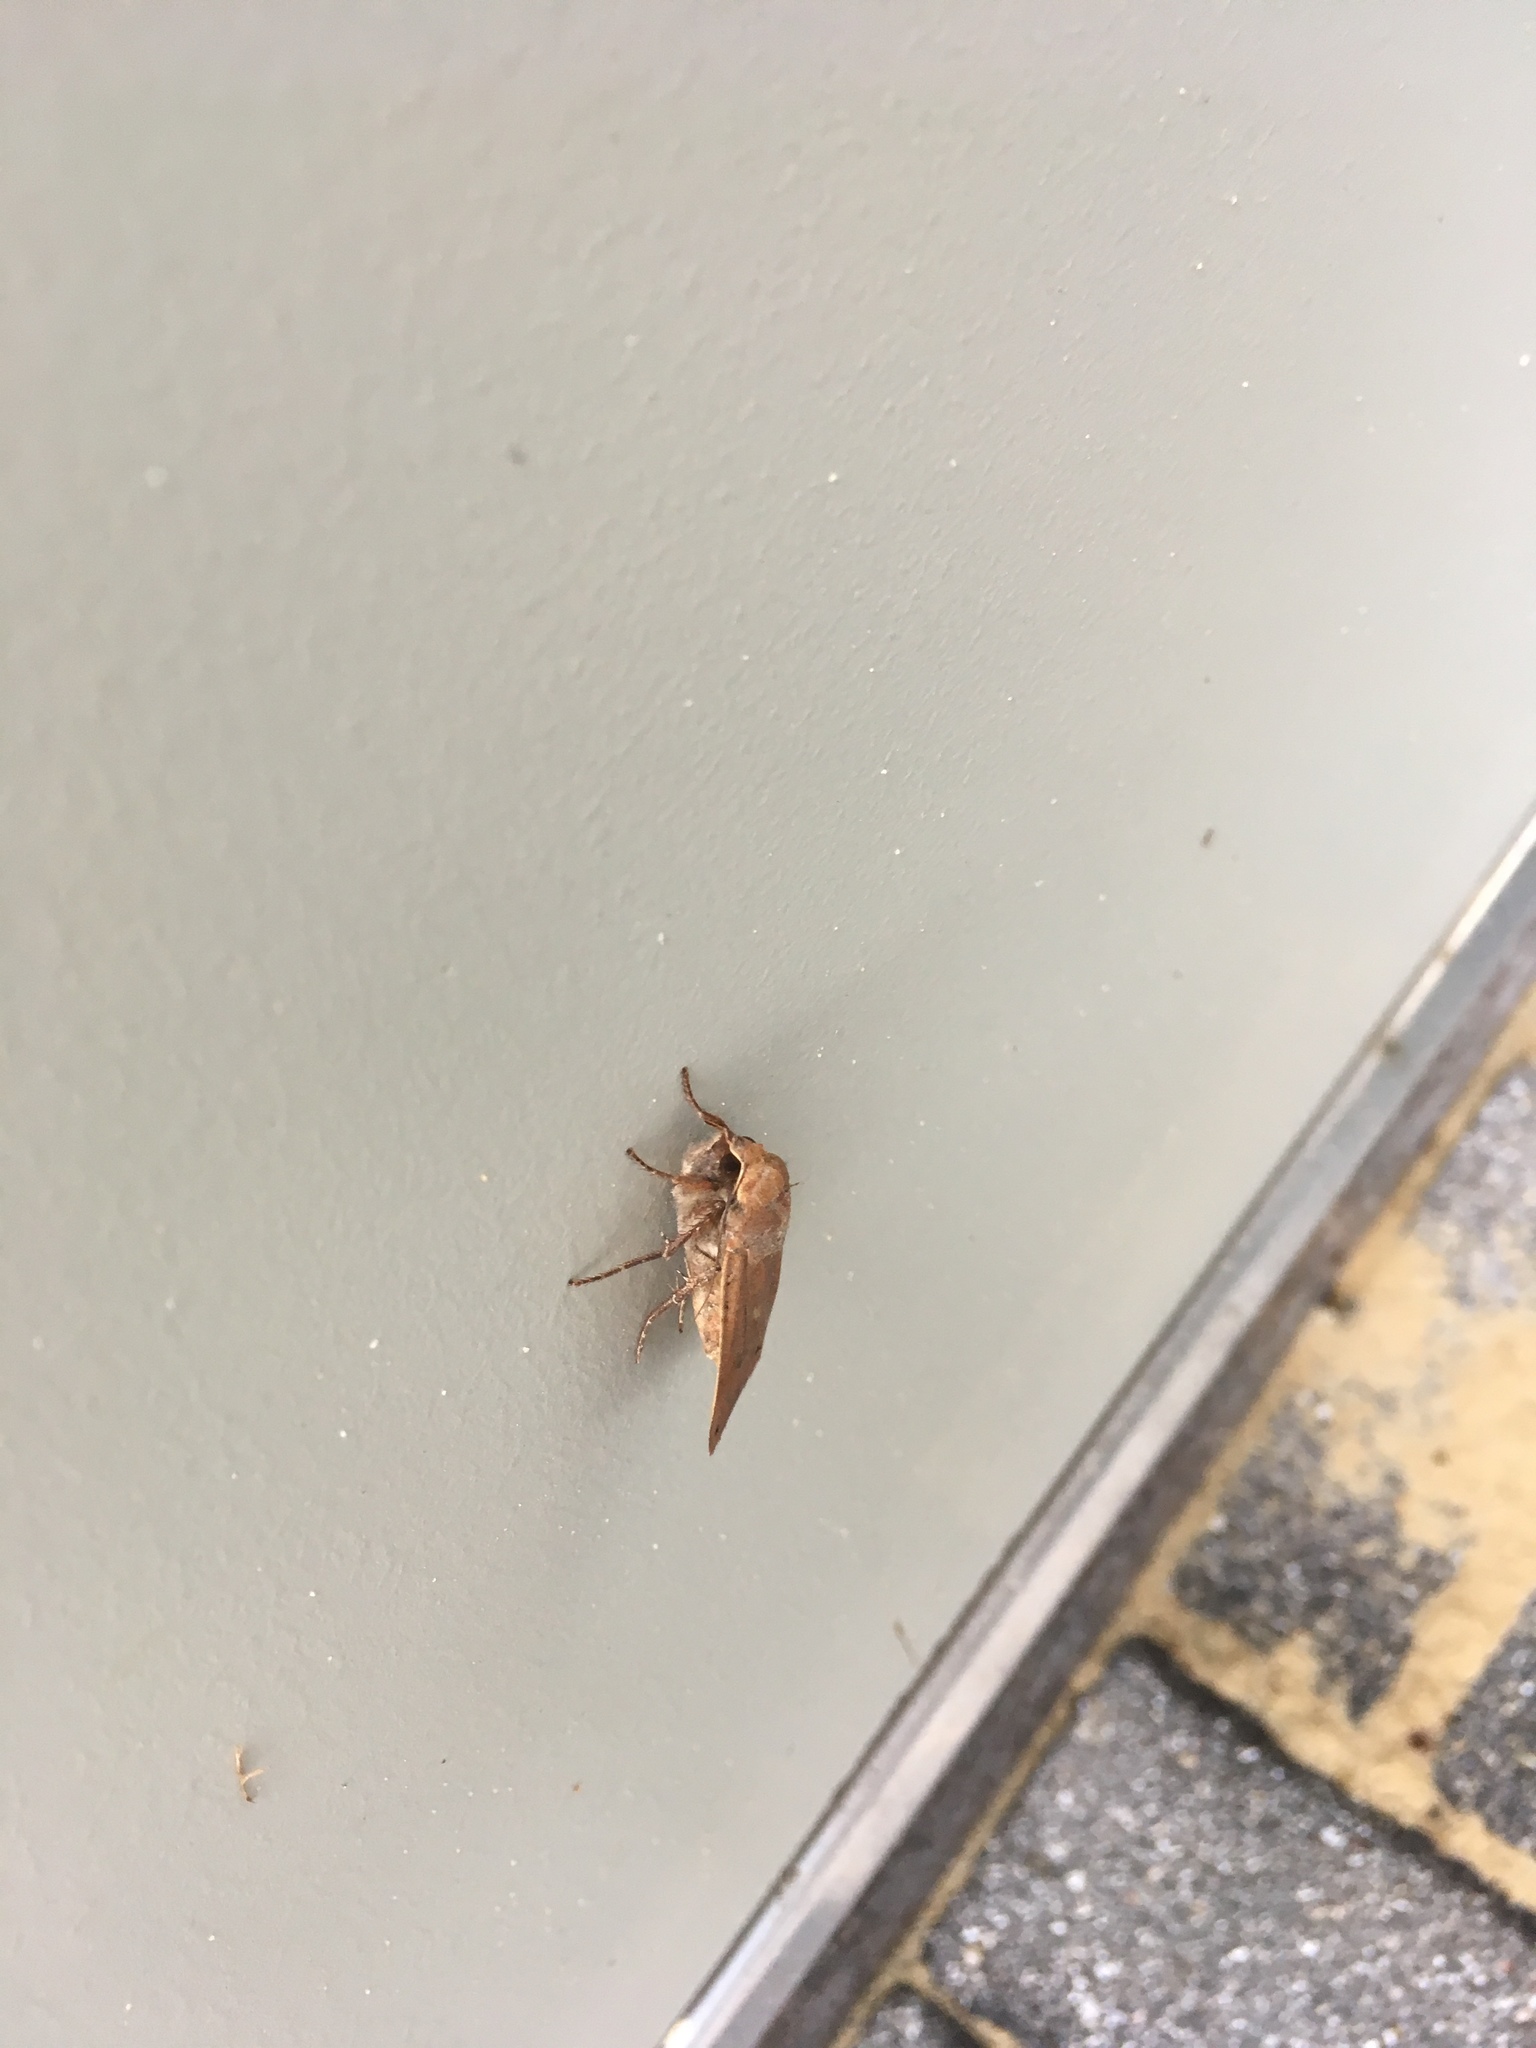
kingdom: Animalia
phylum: Arthropoda
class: Insecta
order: Lepidoptera
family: Noctuidae
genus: Noctua
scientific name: Noctua pronuba
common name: Large yellow underwing
